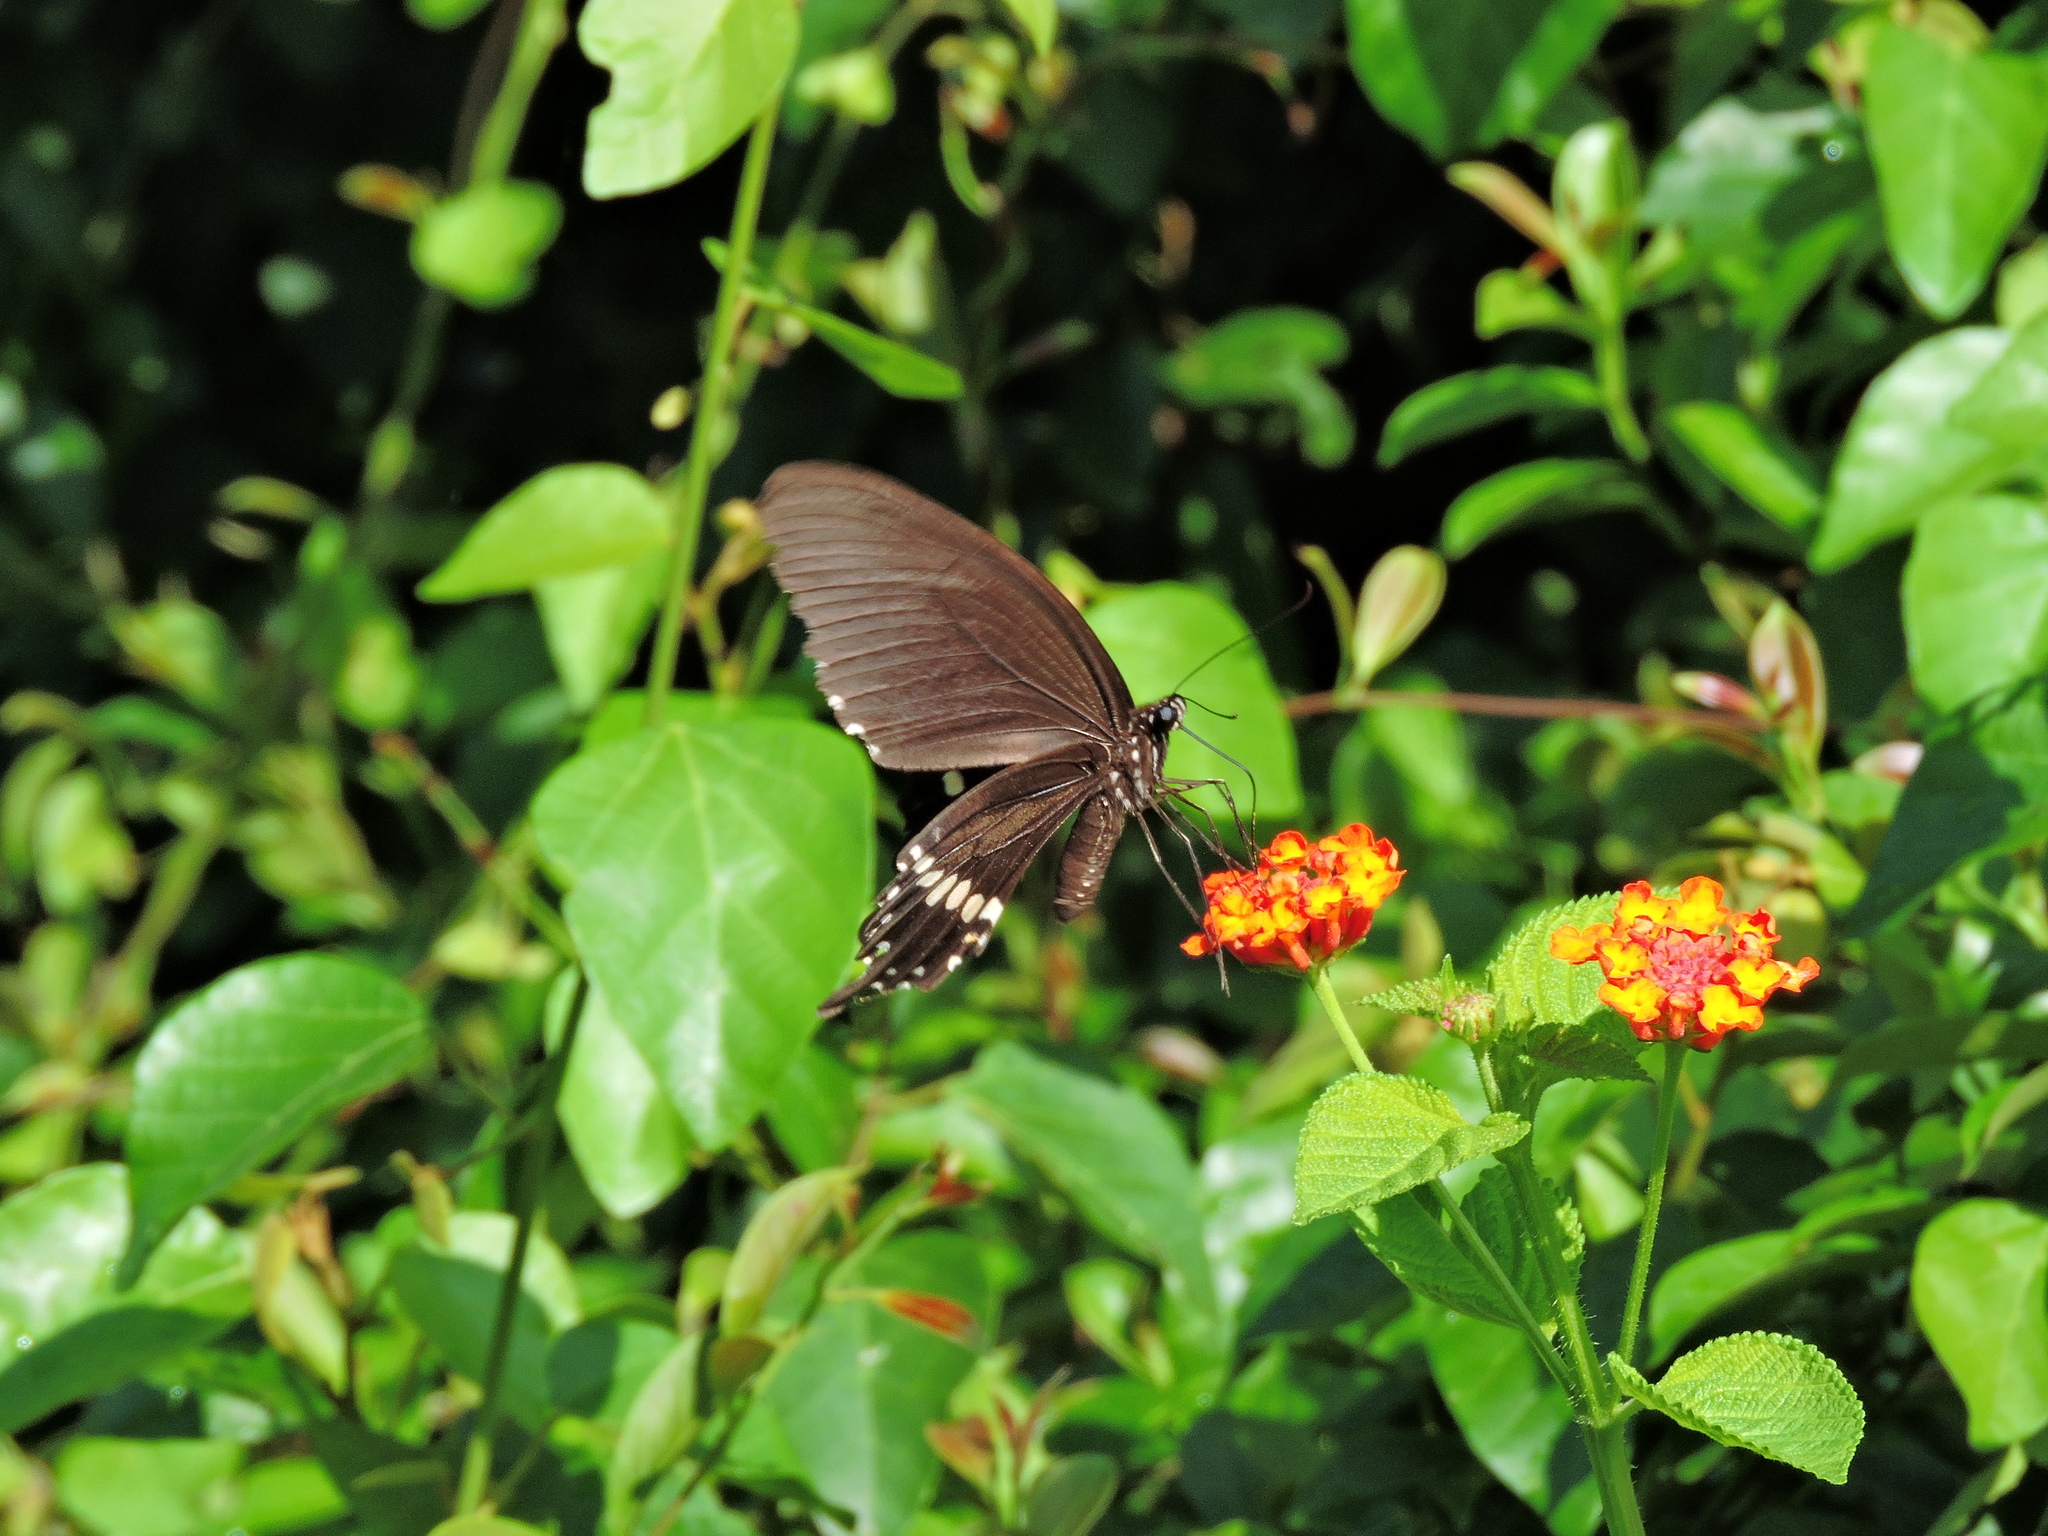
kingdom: Animalia
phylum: Arthropoda
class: Insecta
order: Lepidoptera
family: Papilionidae
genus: Papilio
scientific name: Papilio polytes
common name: Common mormon
